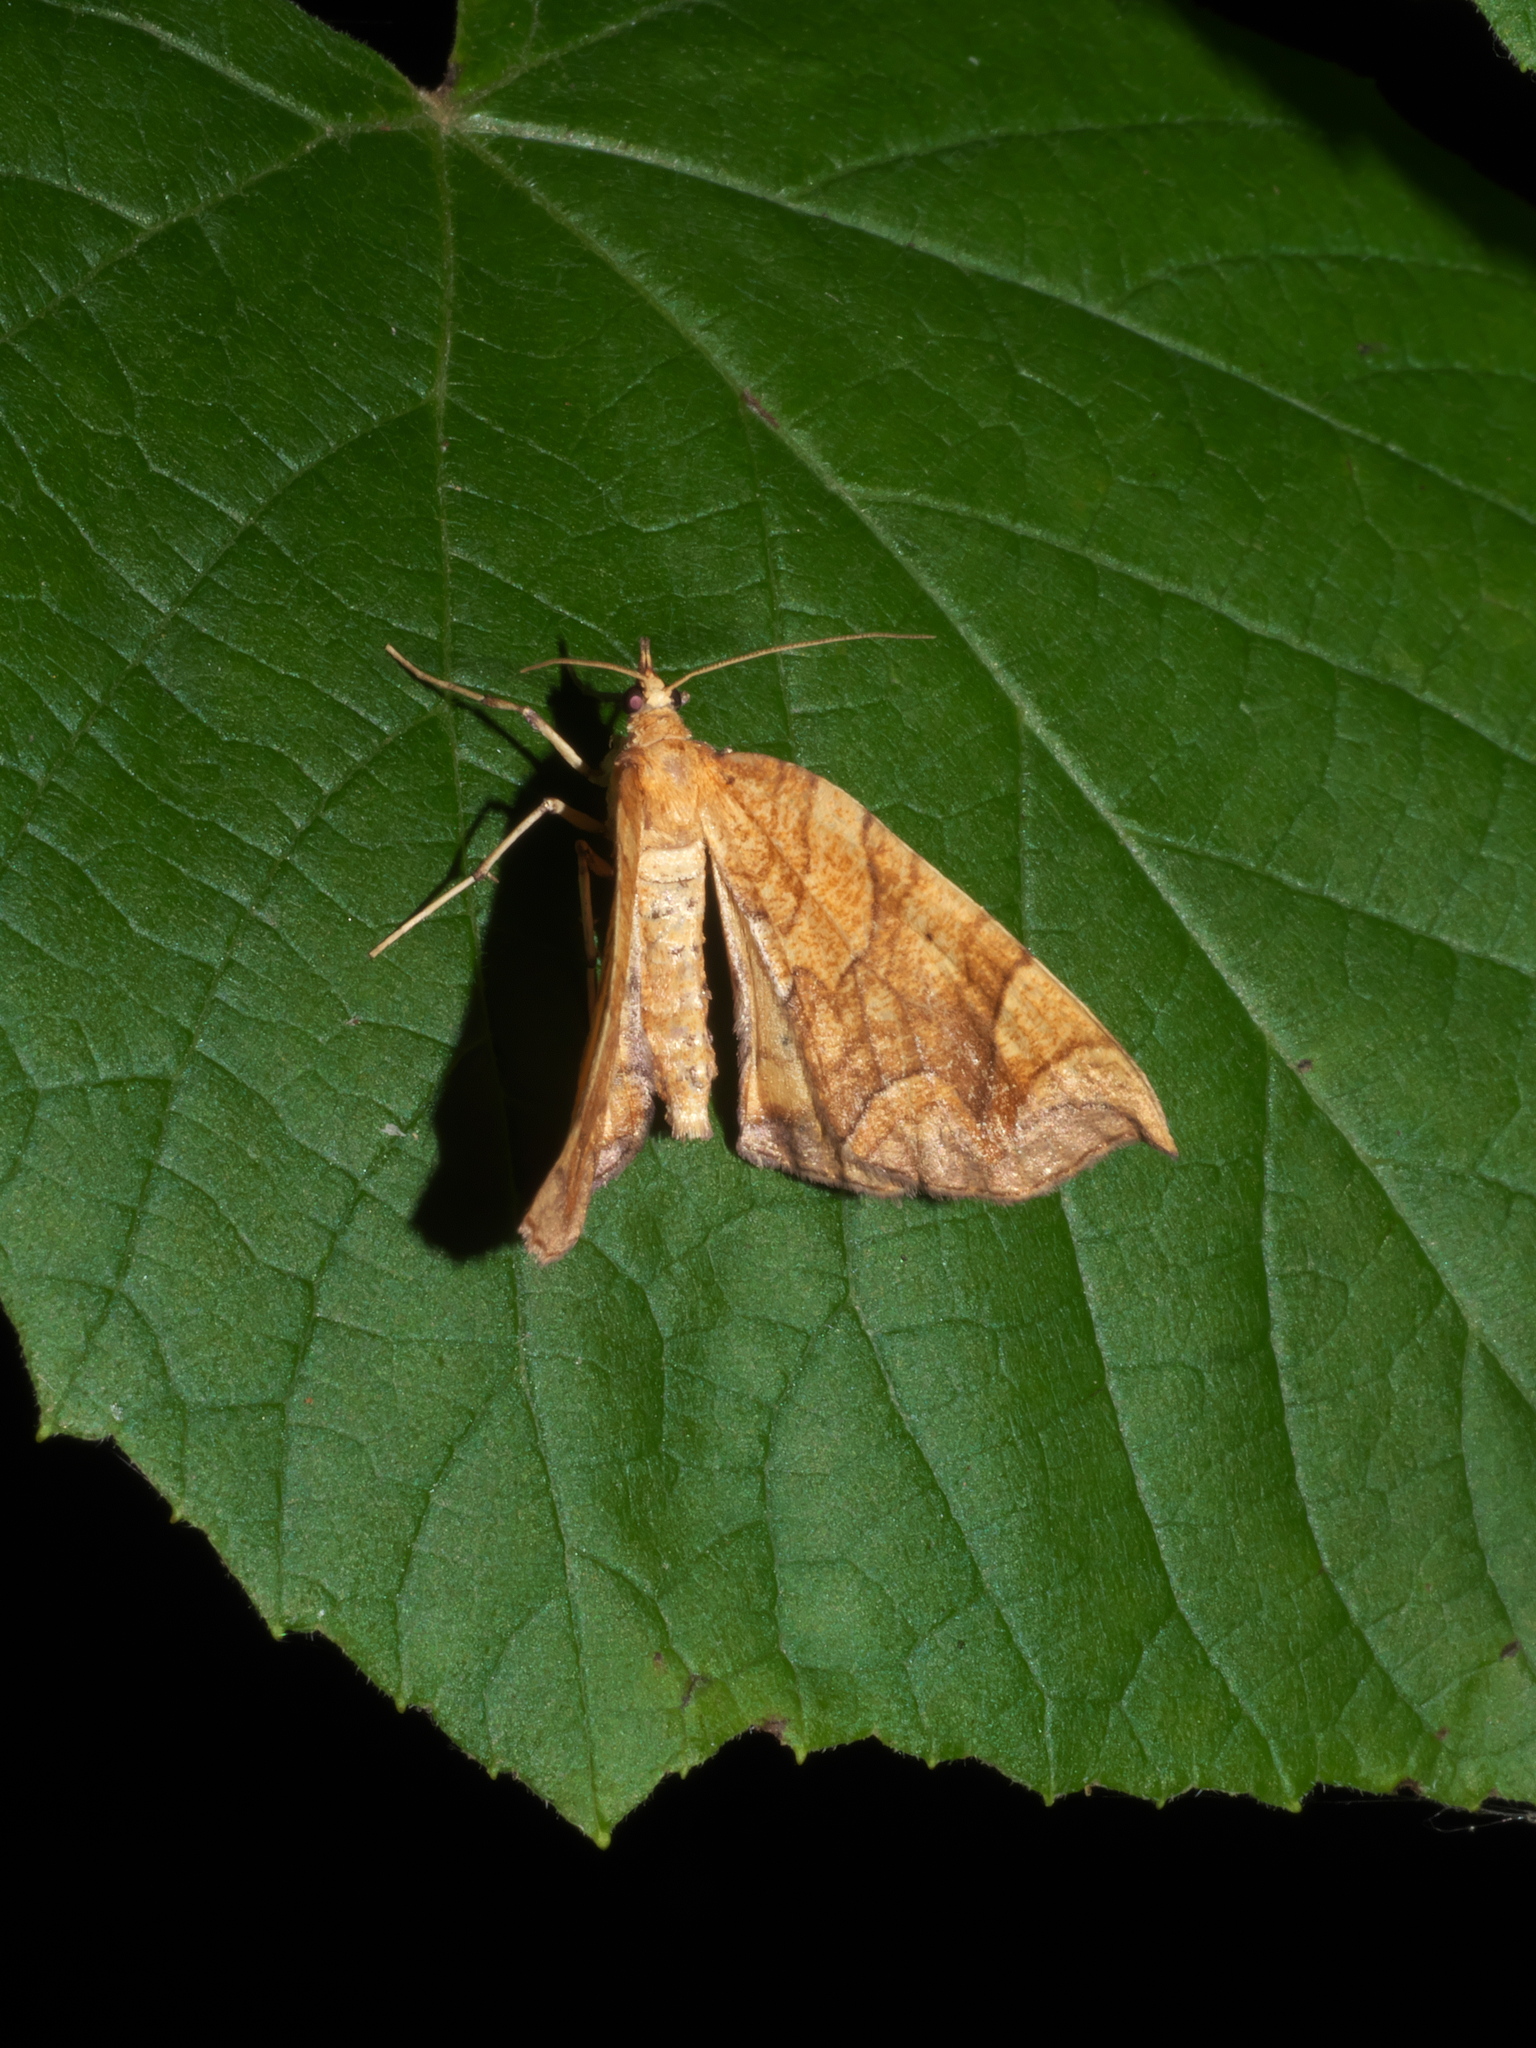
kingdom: Animalia
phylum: Arthropoda
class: Insecta
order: Lepidoptera
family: Geometridae
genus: Eulithis
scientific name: Eulithis
